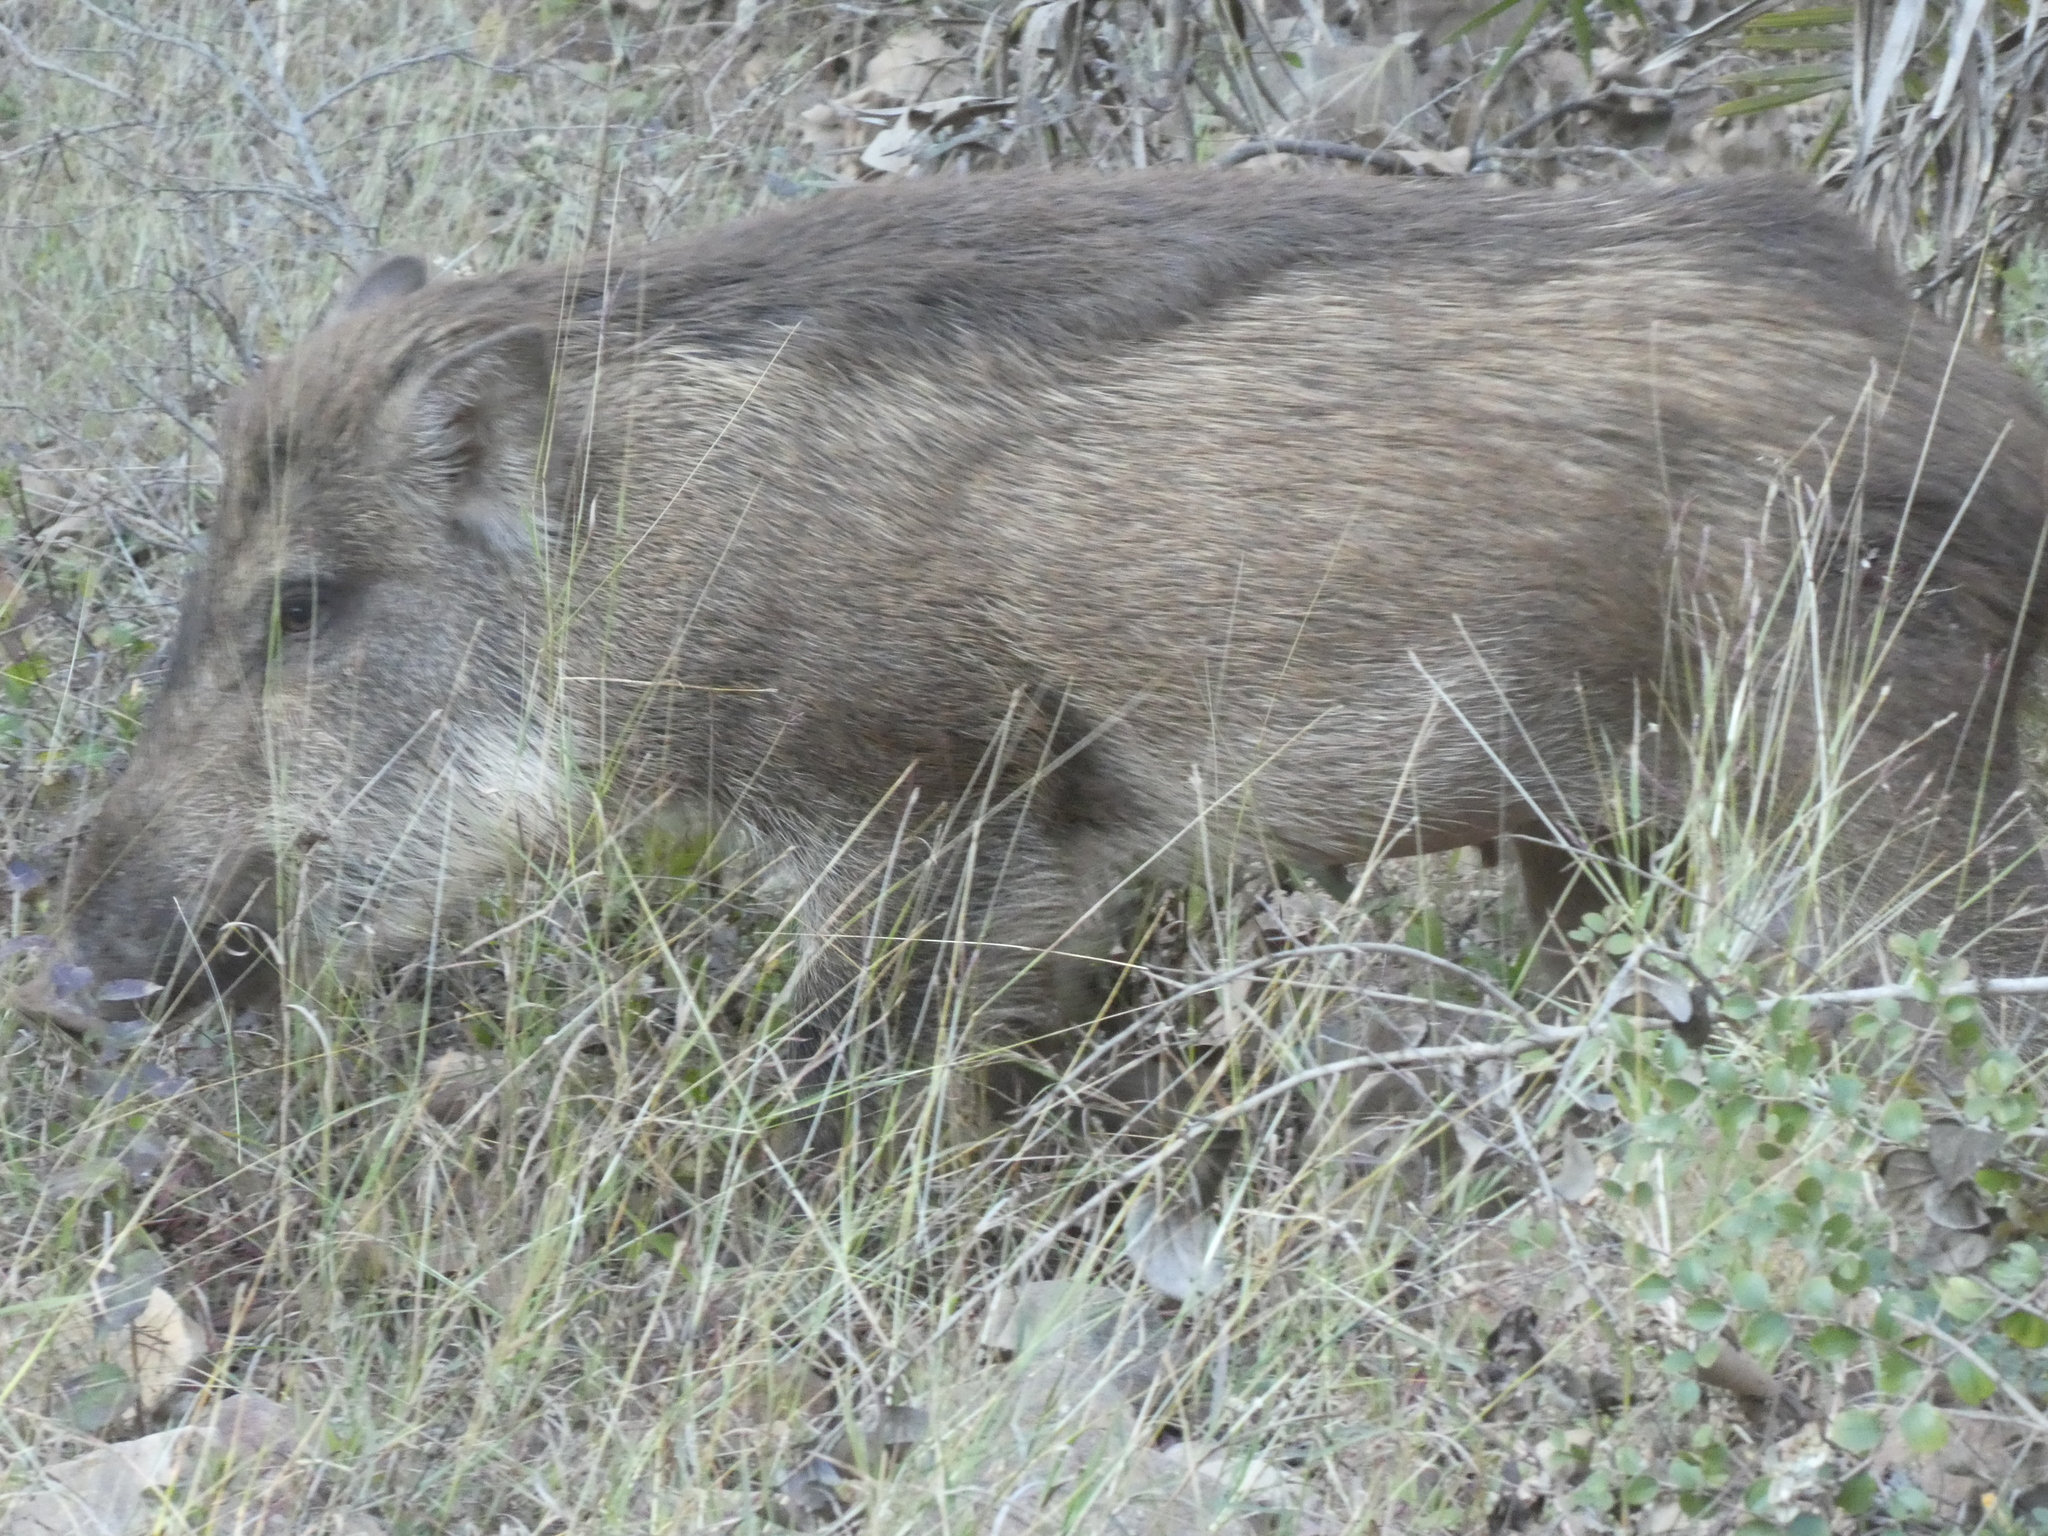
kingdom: Animalia
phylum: Chordata
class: Mammalia
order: Artiodactyla
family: Suidae
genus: Sus
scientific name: Sus scrofa
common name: Wild boar
